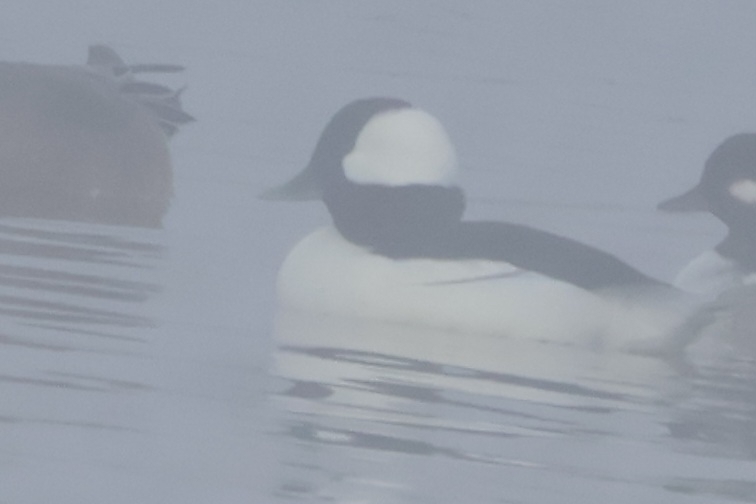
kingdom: Animalia
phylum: Chordata
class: Aves
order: Anseriformes
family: Anatidae
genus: Bucephala
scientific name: Bucephala albeola
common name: Bufflehead
